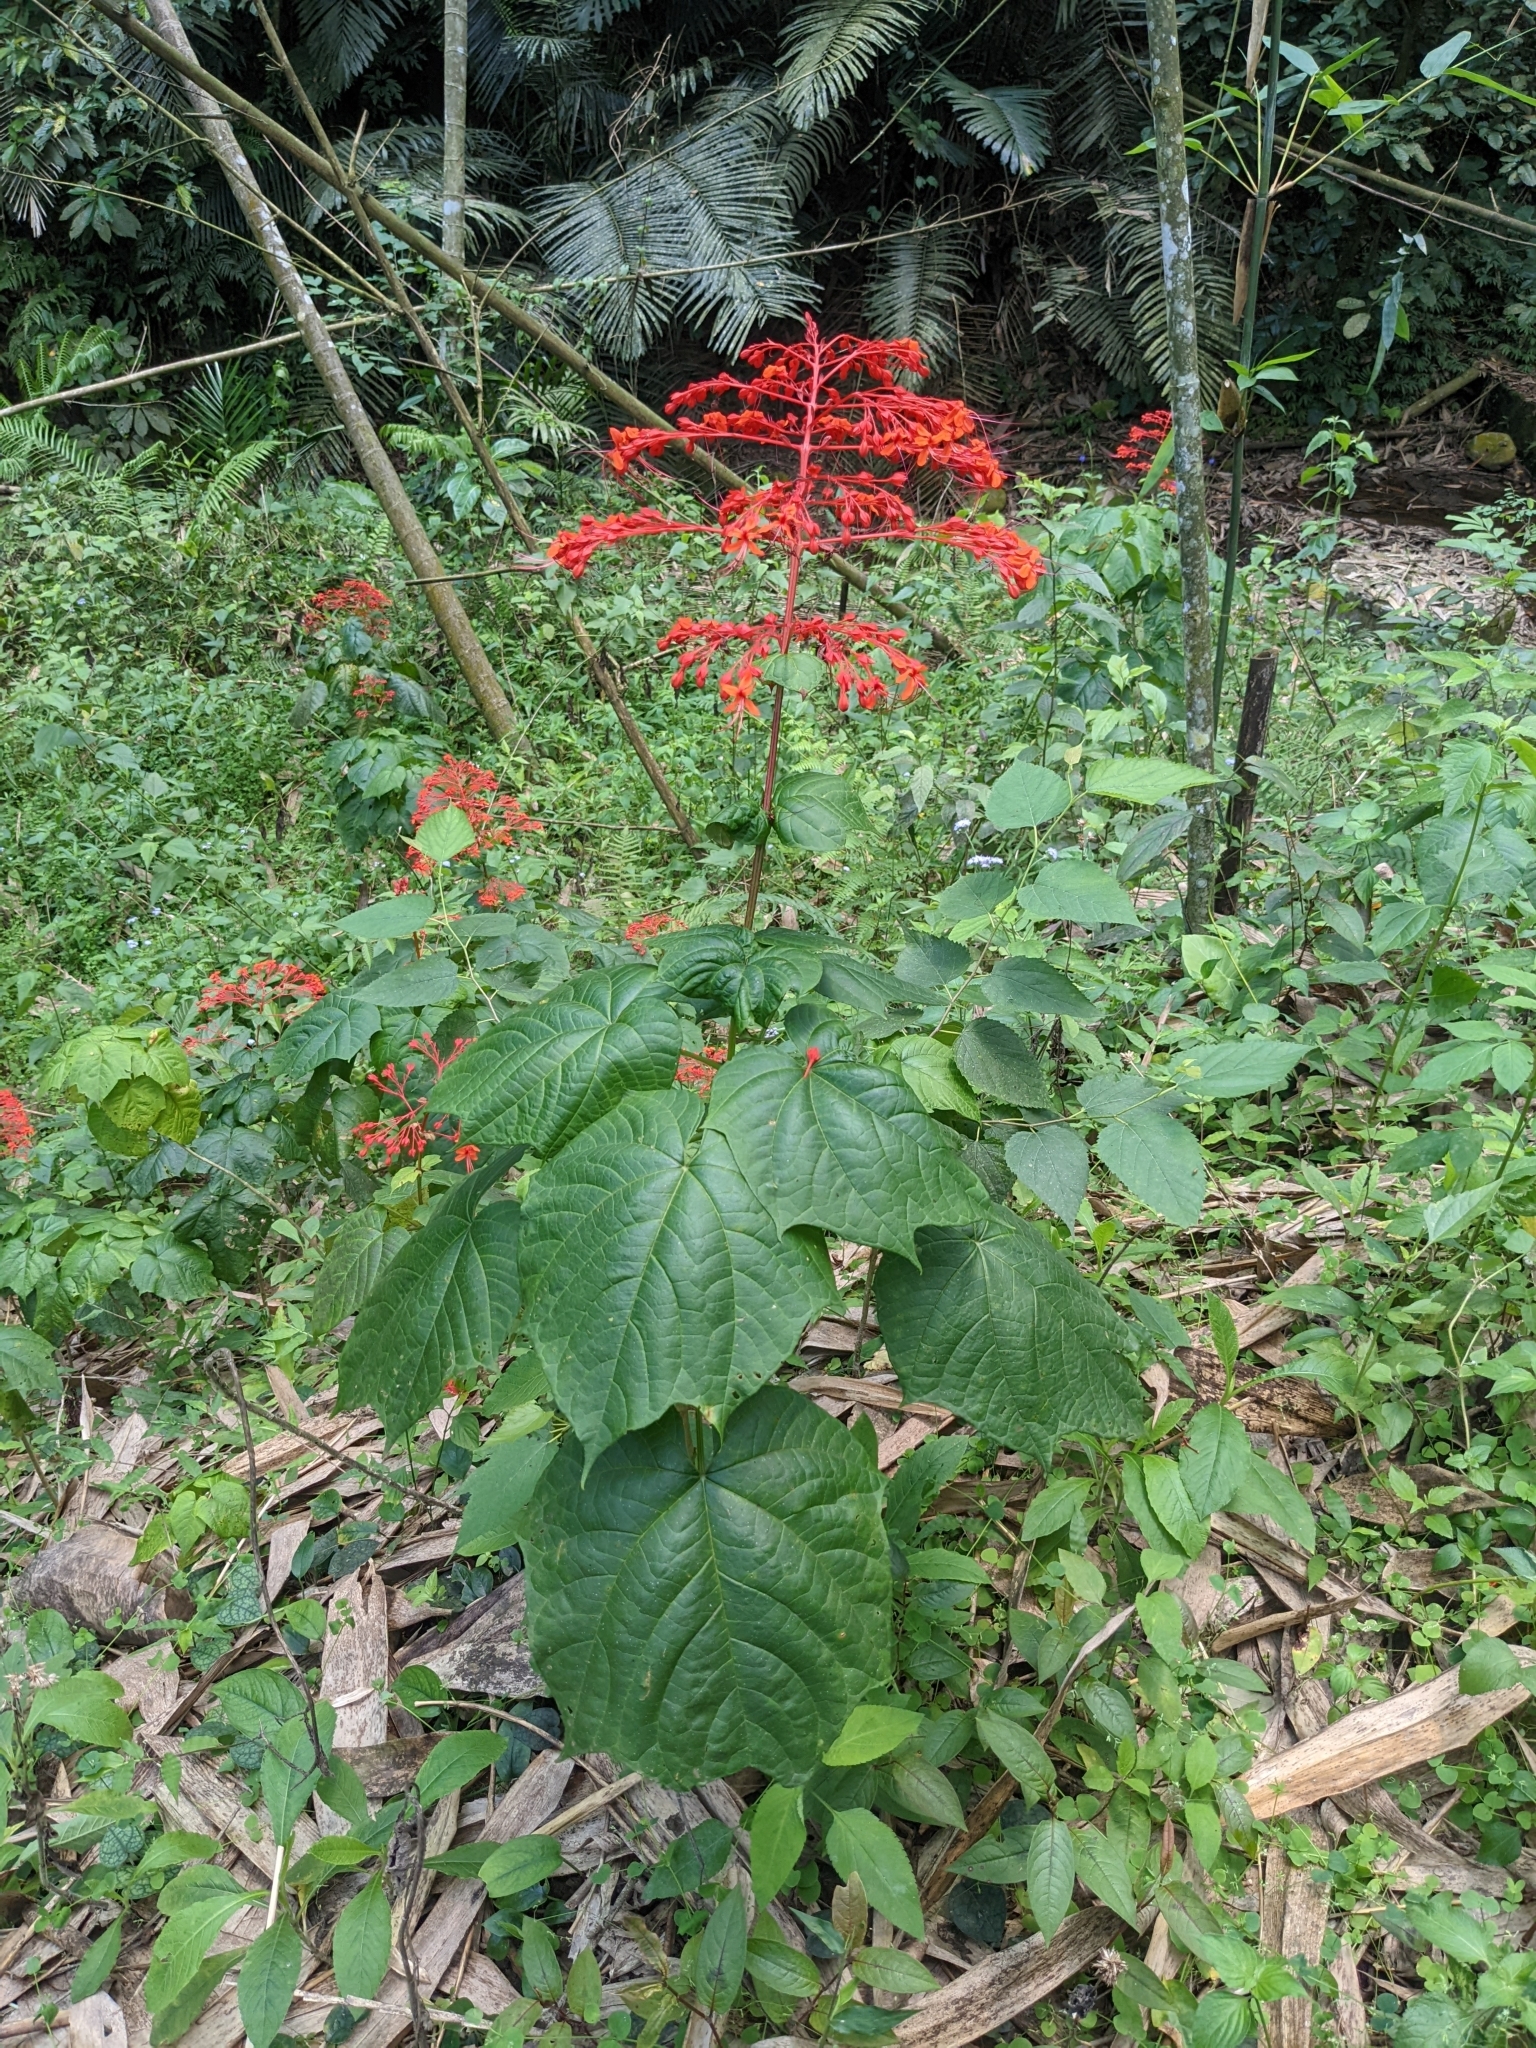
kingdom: Plantae
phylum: Tracheophyta
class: Magnoliopsida
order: Lamiales
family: Lamiaceae
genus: Clerodendrum
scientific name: Clerodendrum japonicum
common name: Japanese glorybower
